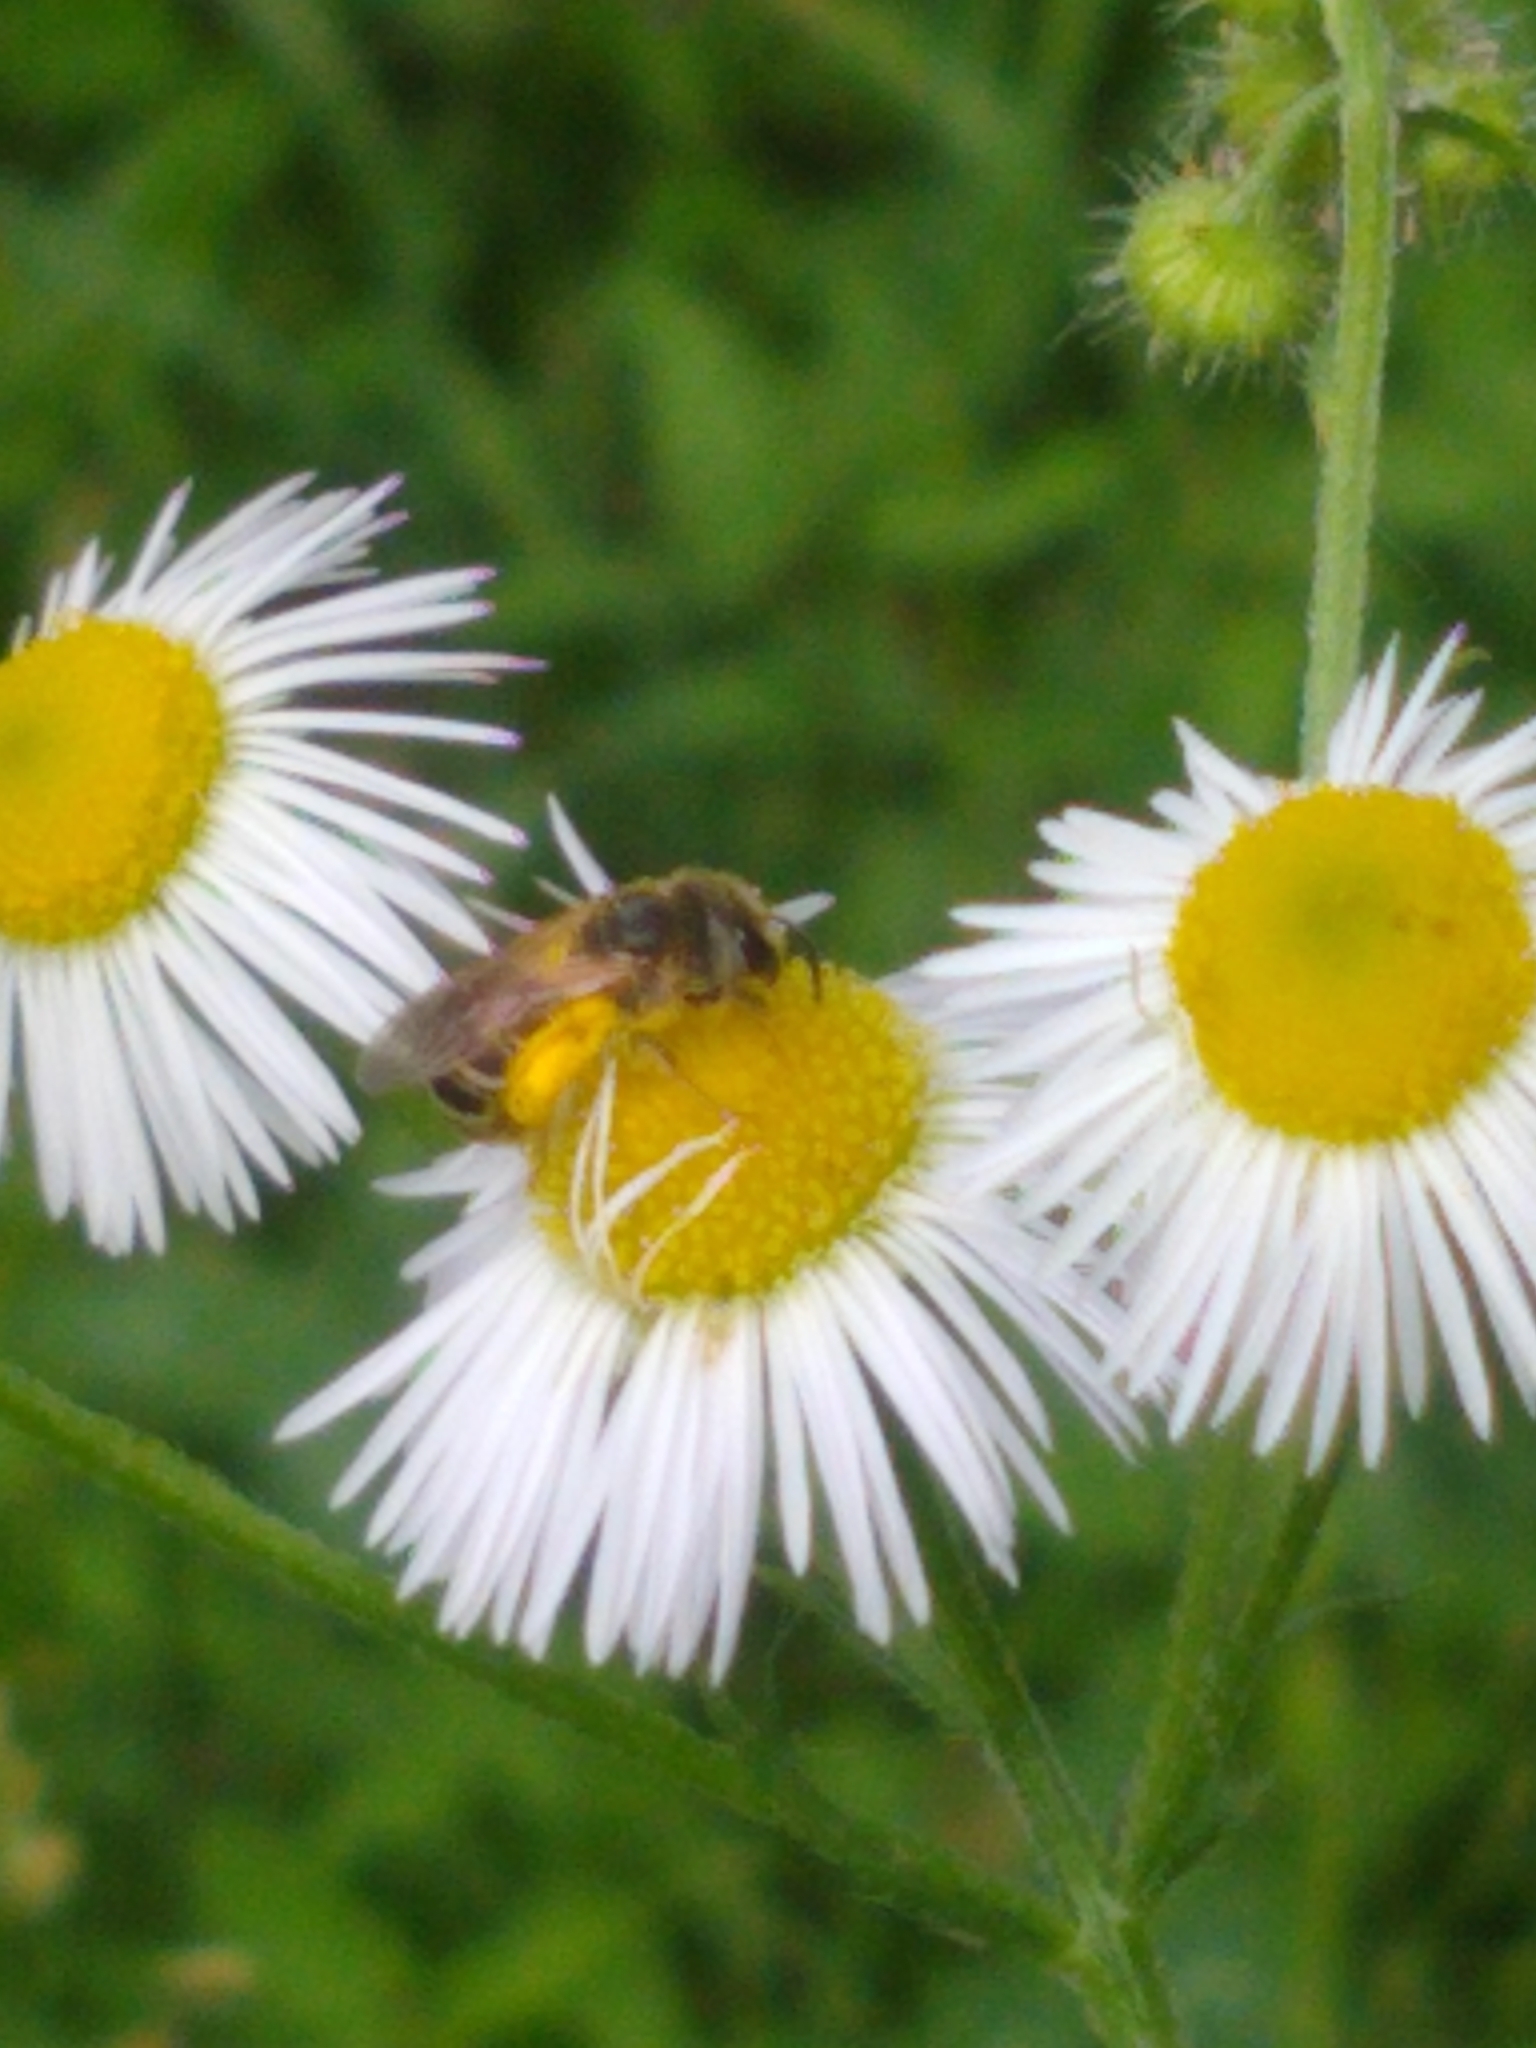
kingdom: Animalia
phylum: Arthropoda
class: Insecta
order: Hymenoptera
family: Halictidae
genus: Halictus
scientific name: Halictus ligatus
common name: Ligated furrow bee
